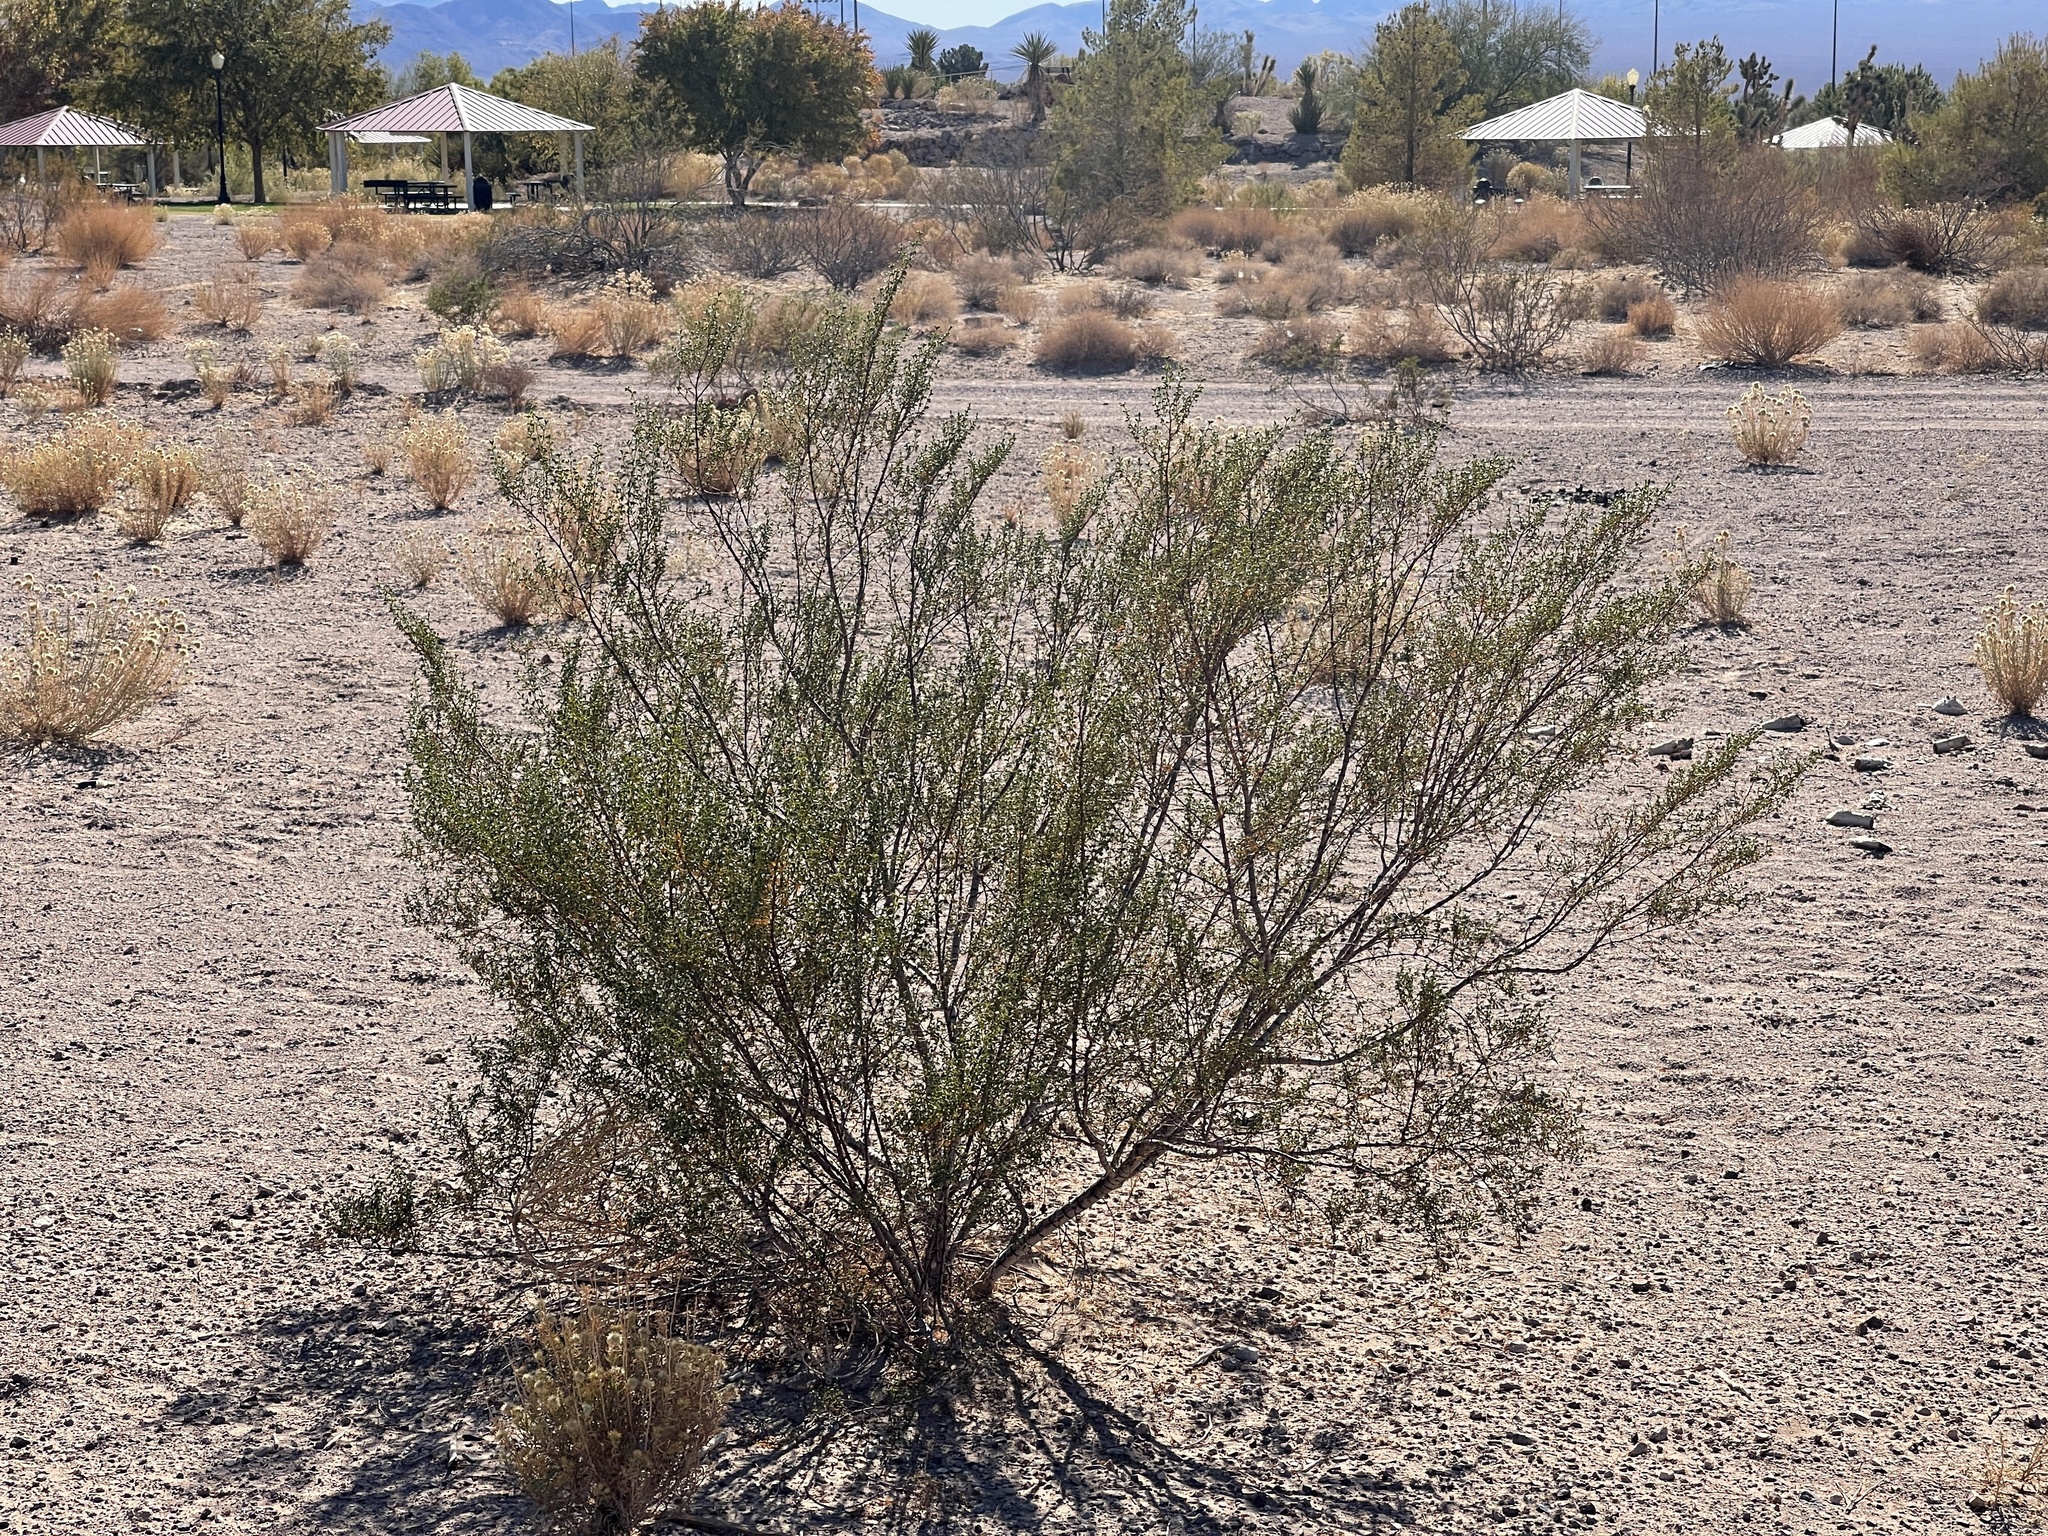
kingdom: Plantae
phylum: Tracheophyta
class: Magnoliopsida
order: Zygophyllales
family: Zygophyllaceae
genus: Larrea
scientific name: Larrea tridentata
